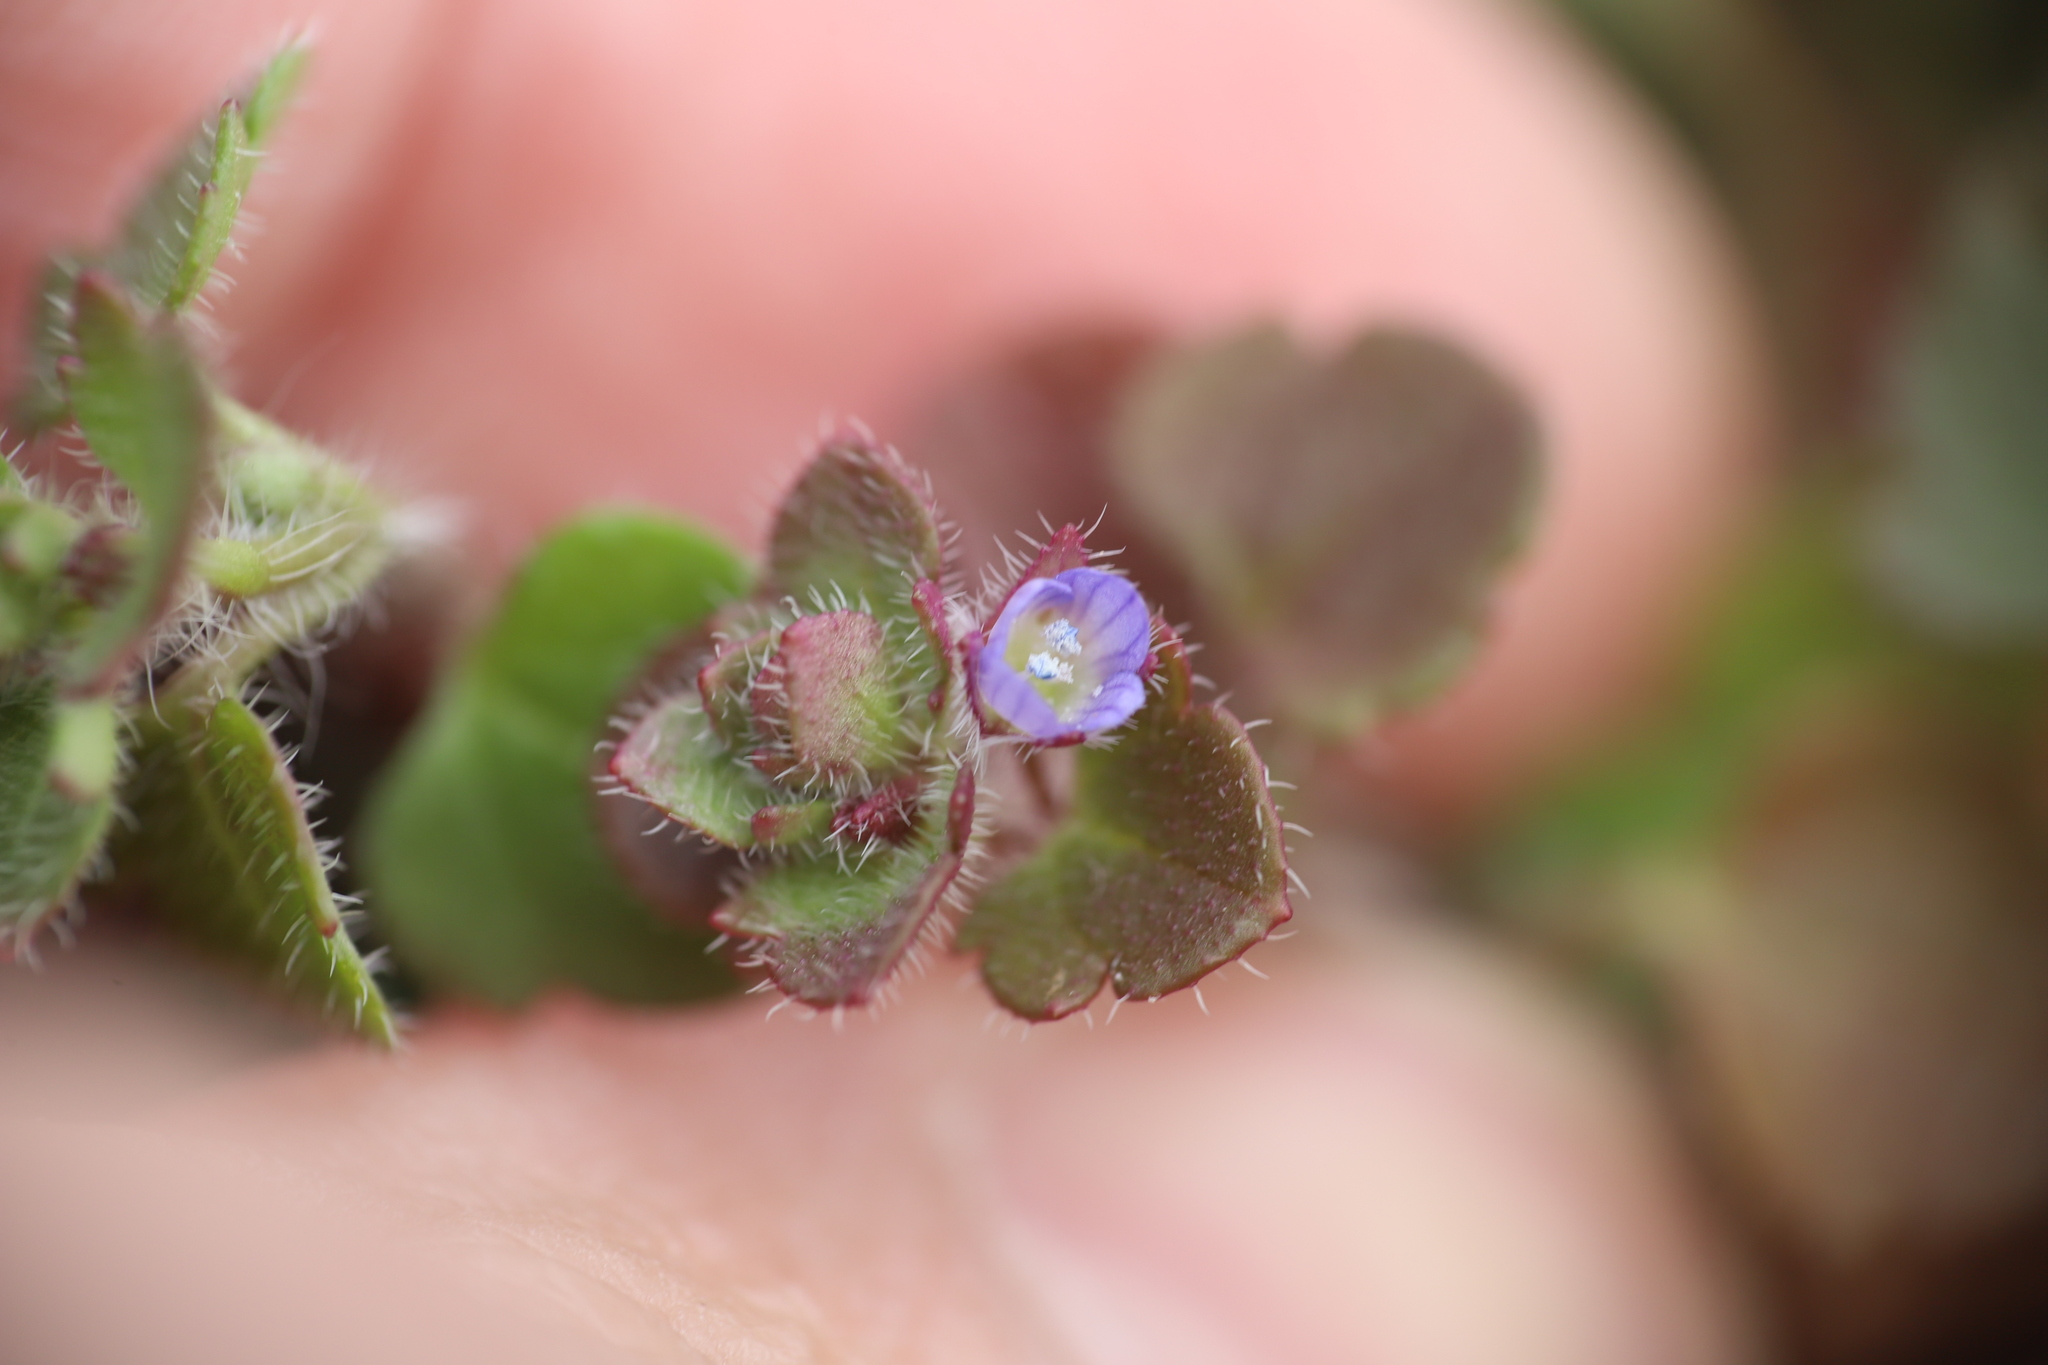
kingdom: Plantae
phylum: Tracheophyta
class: Magnoliopsida
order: Lamiales
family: Plantaginaceae
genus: Veronica
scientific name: Veronica persica
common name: Common field-speedwell
